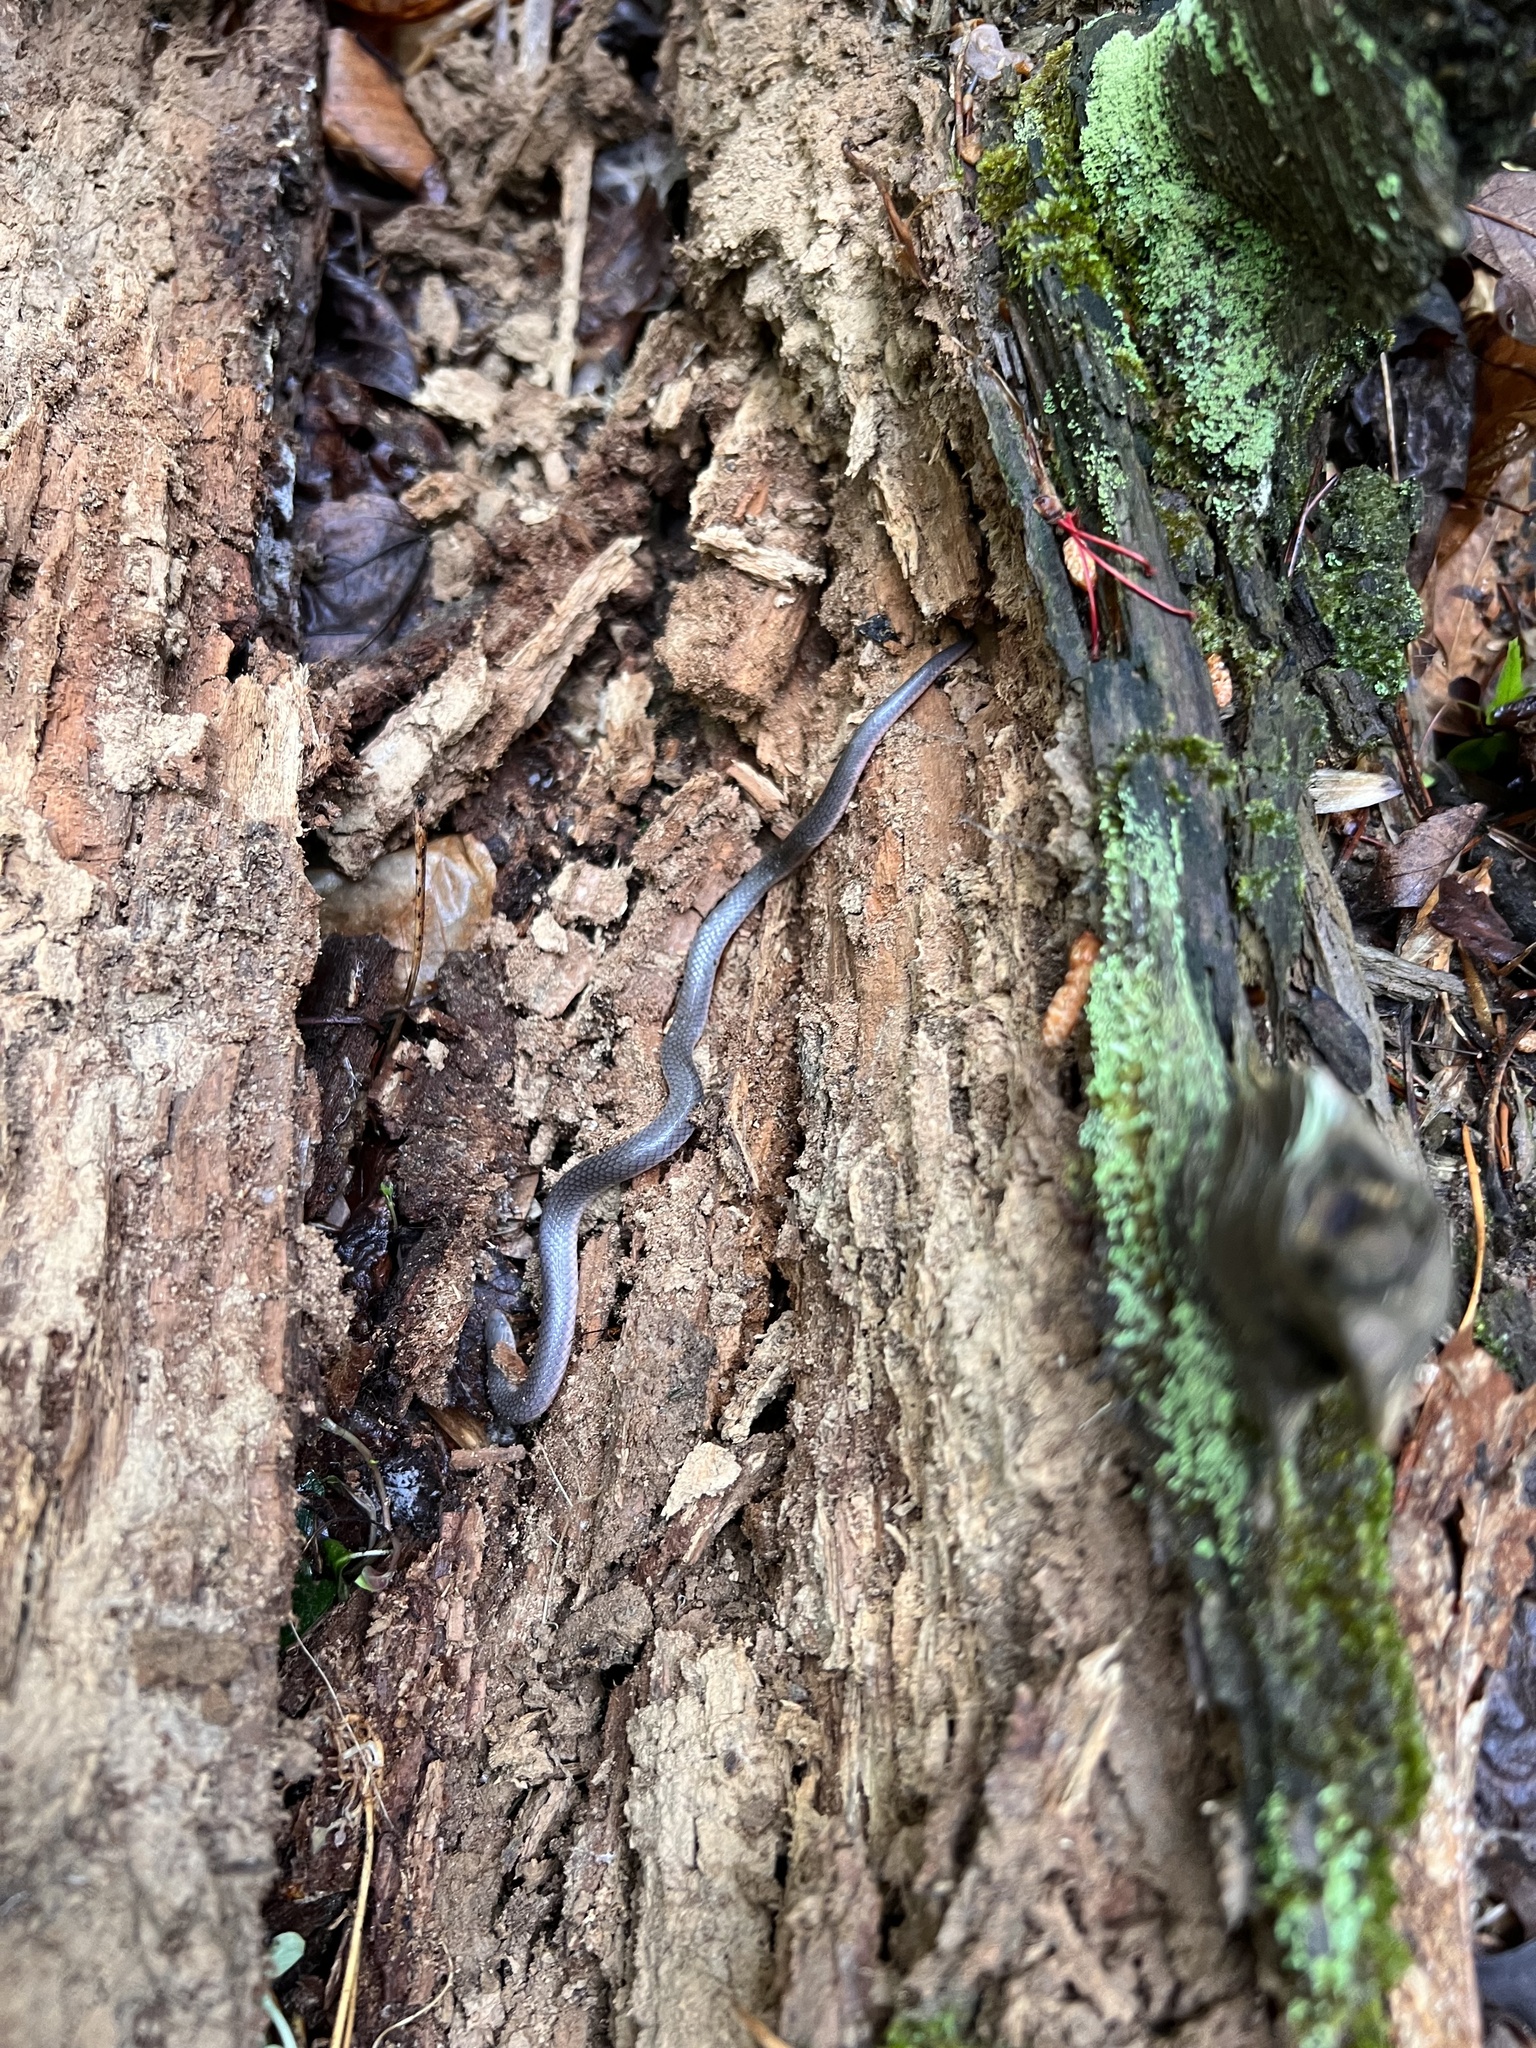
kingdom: Animalia
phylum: Chordata
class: Squamata
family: Colubridae
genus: Carphophis
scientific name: Carphophis amoenus
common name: Eastern worm snake
